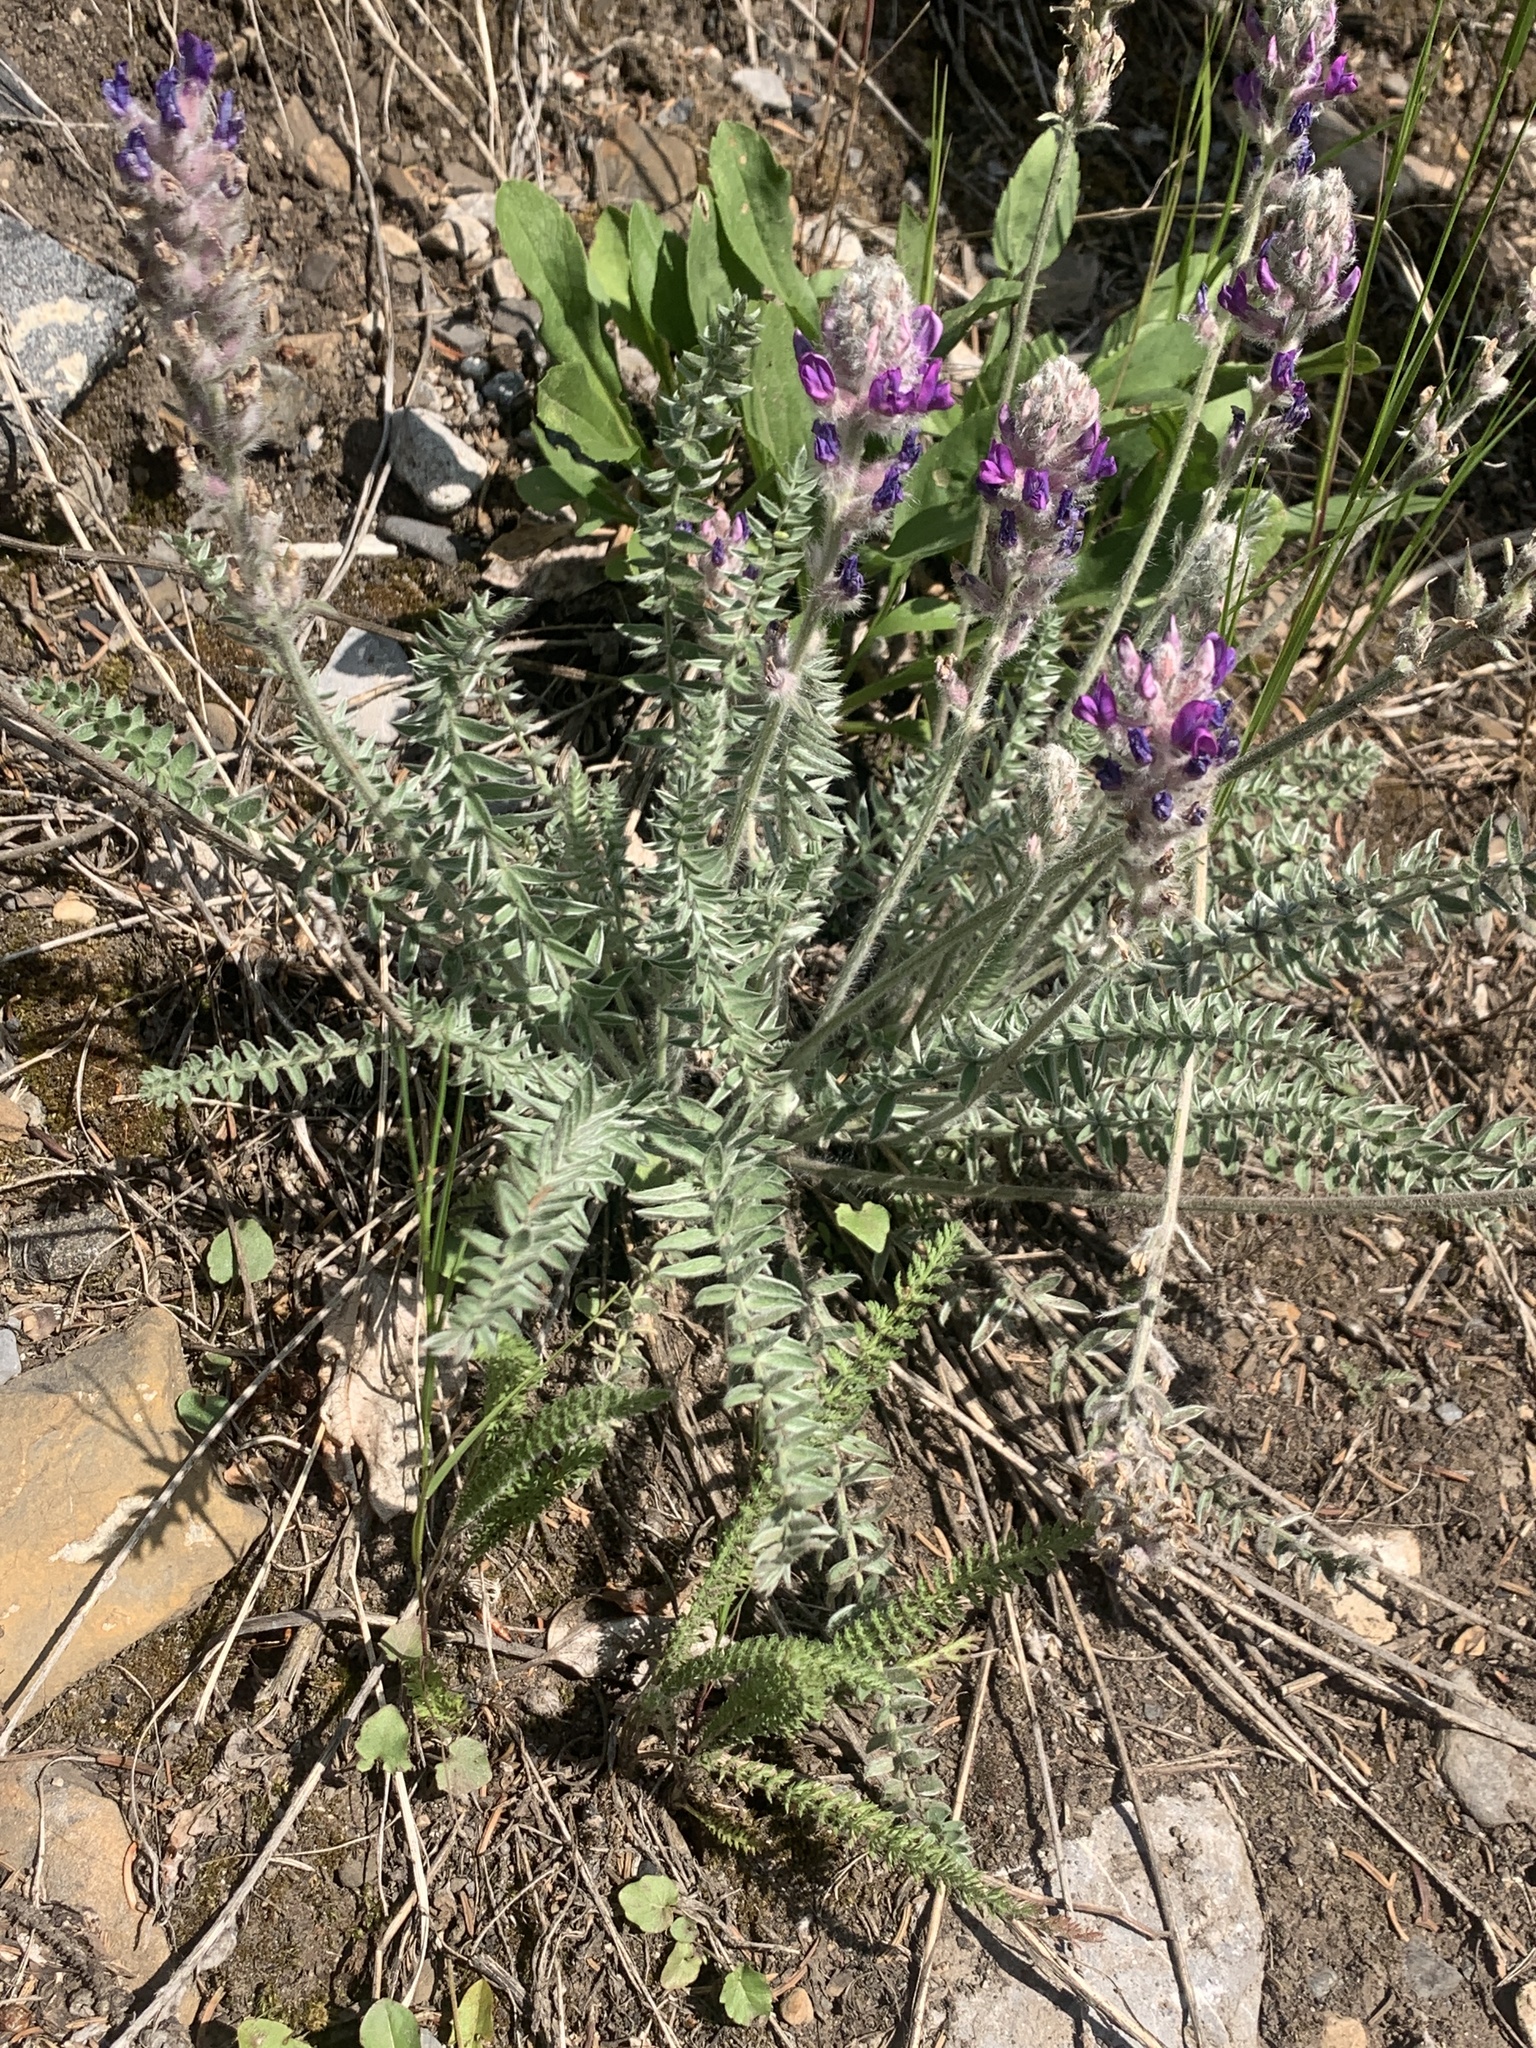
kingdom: Plantae
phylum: Tracheophyta
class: Magnoliopsida
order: Fabales
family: Fabaceae
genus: Oxytropis
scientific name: Oxytropis splendens
